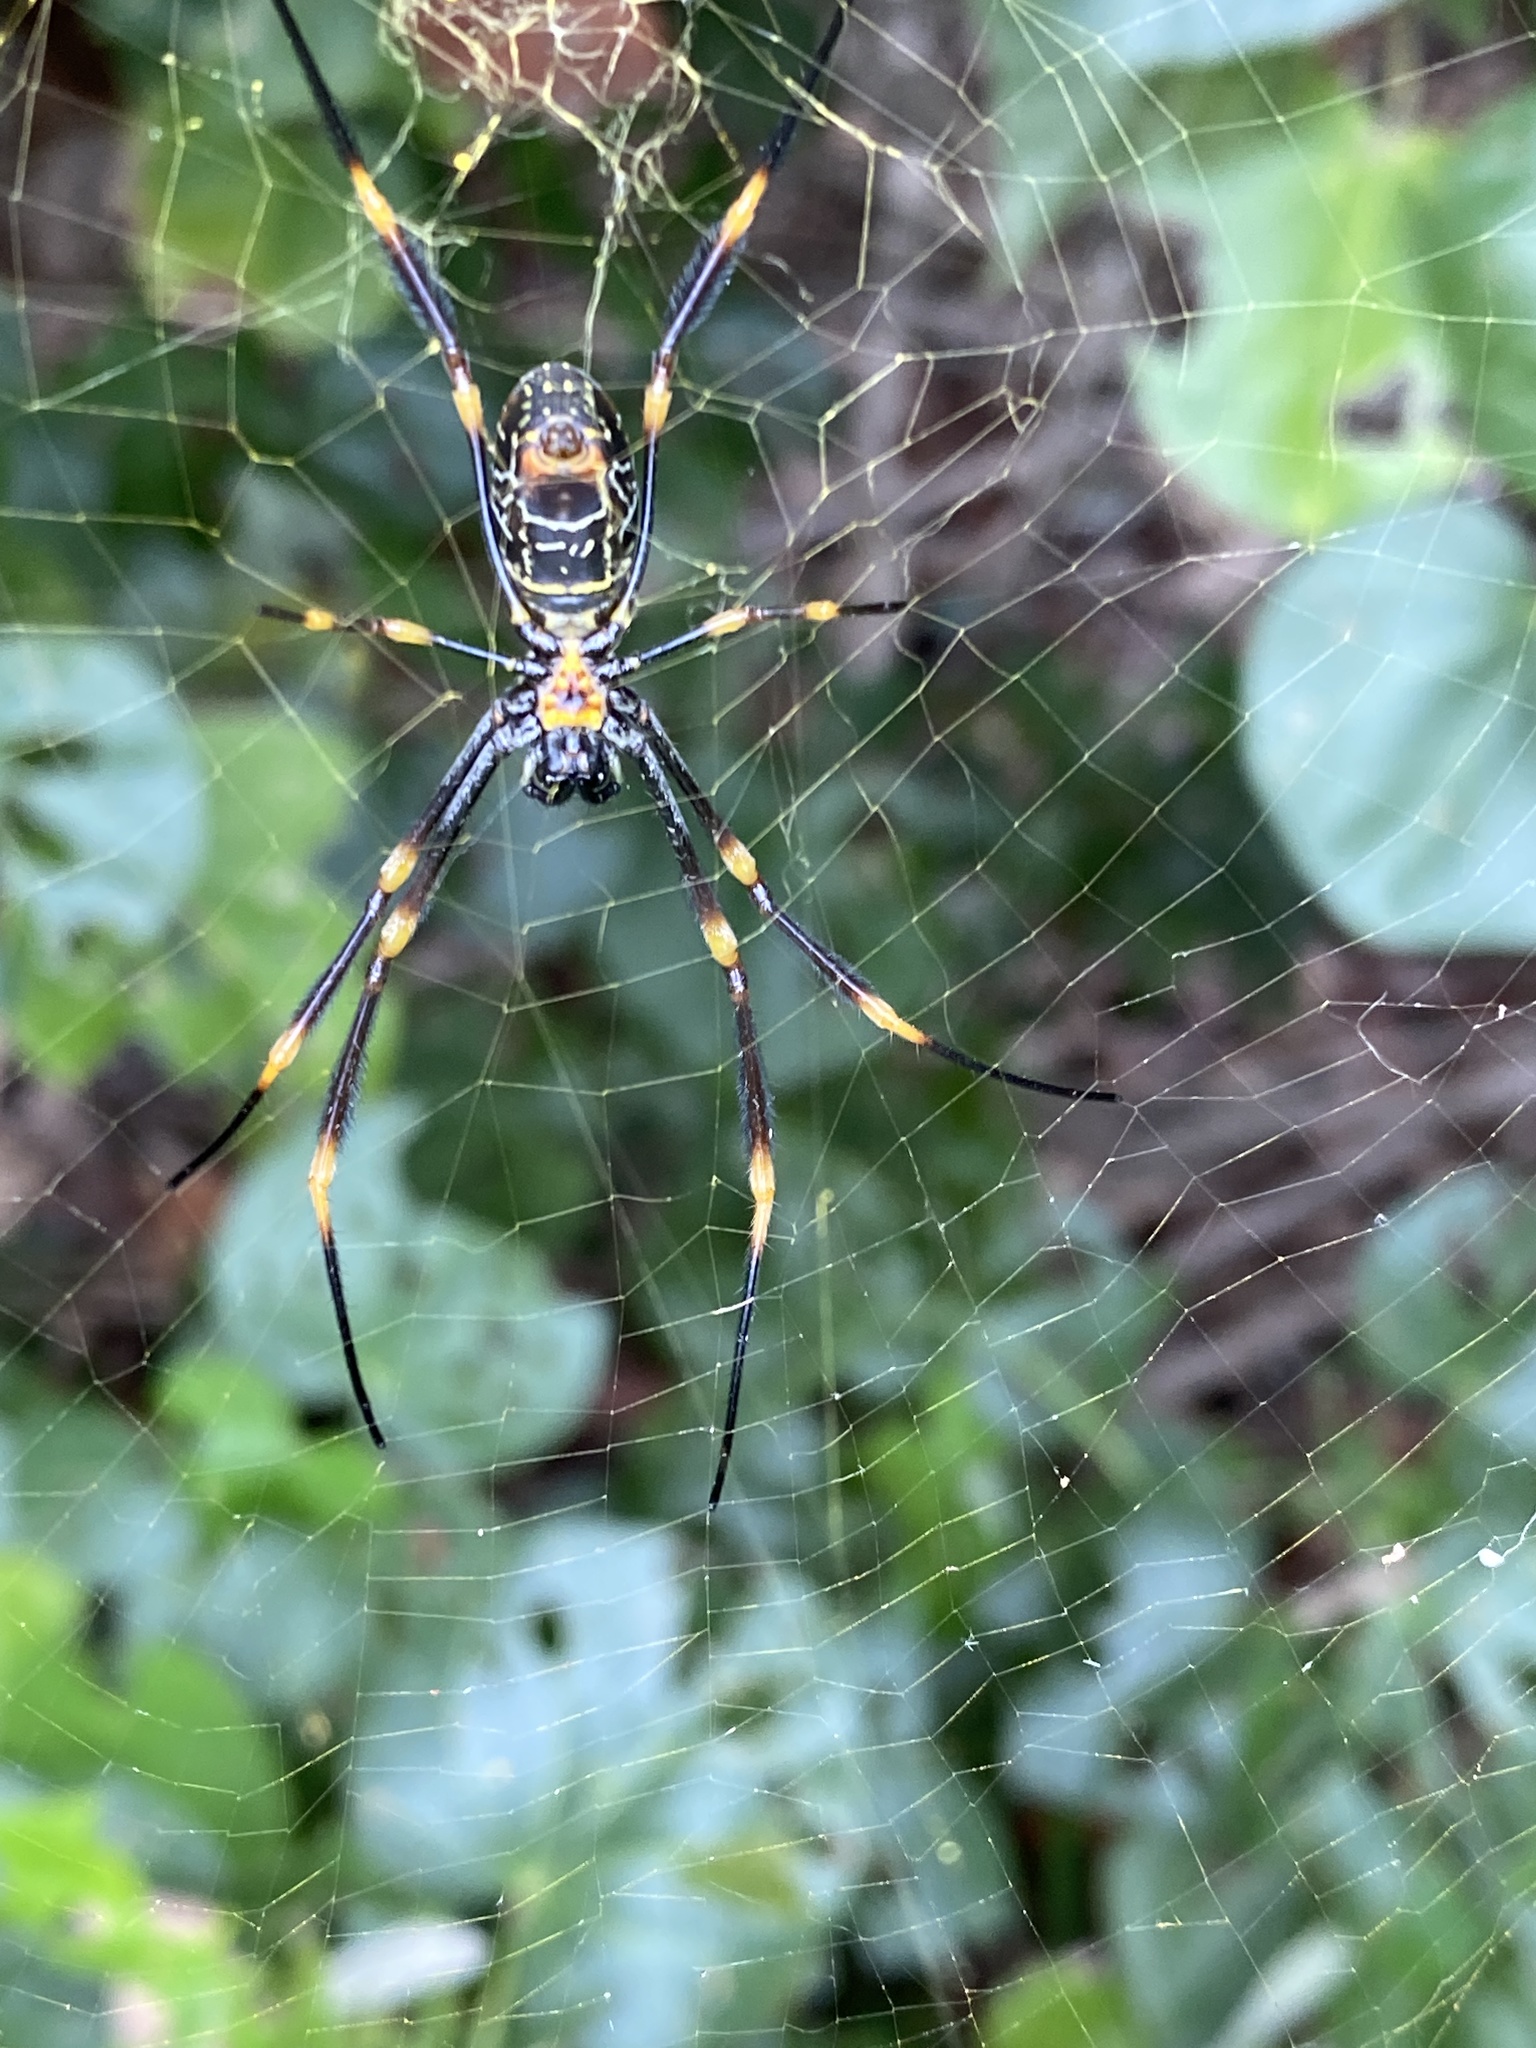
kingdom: Animalia
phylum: Arthropoda
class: Arachnida
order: Araneae
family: Araneidae
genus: Trichonephila
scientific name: Trichonephila plumipes
